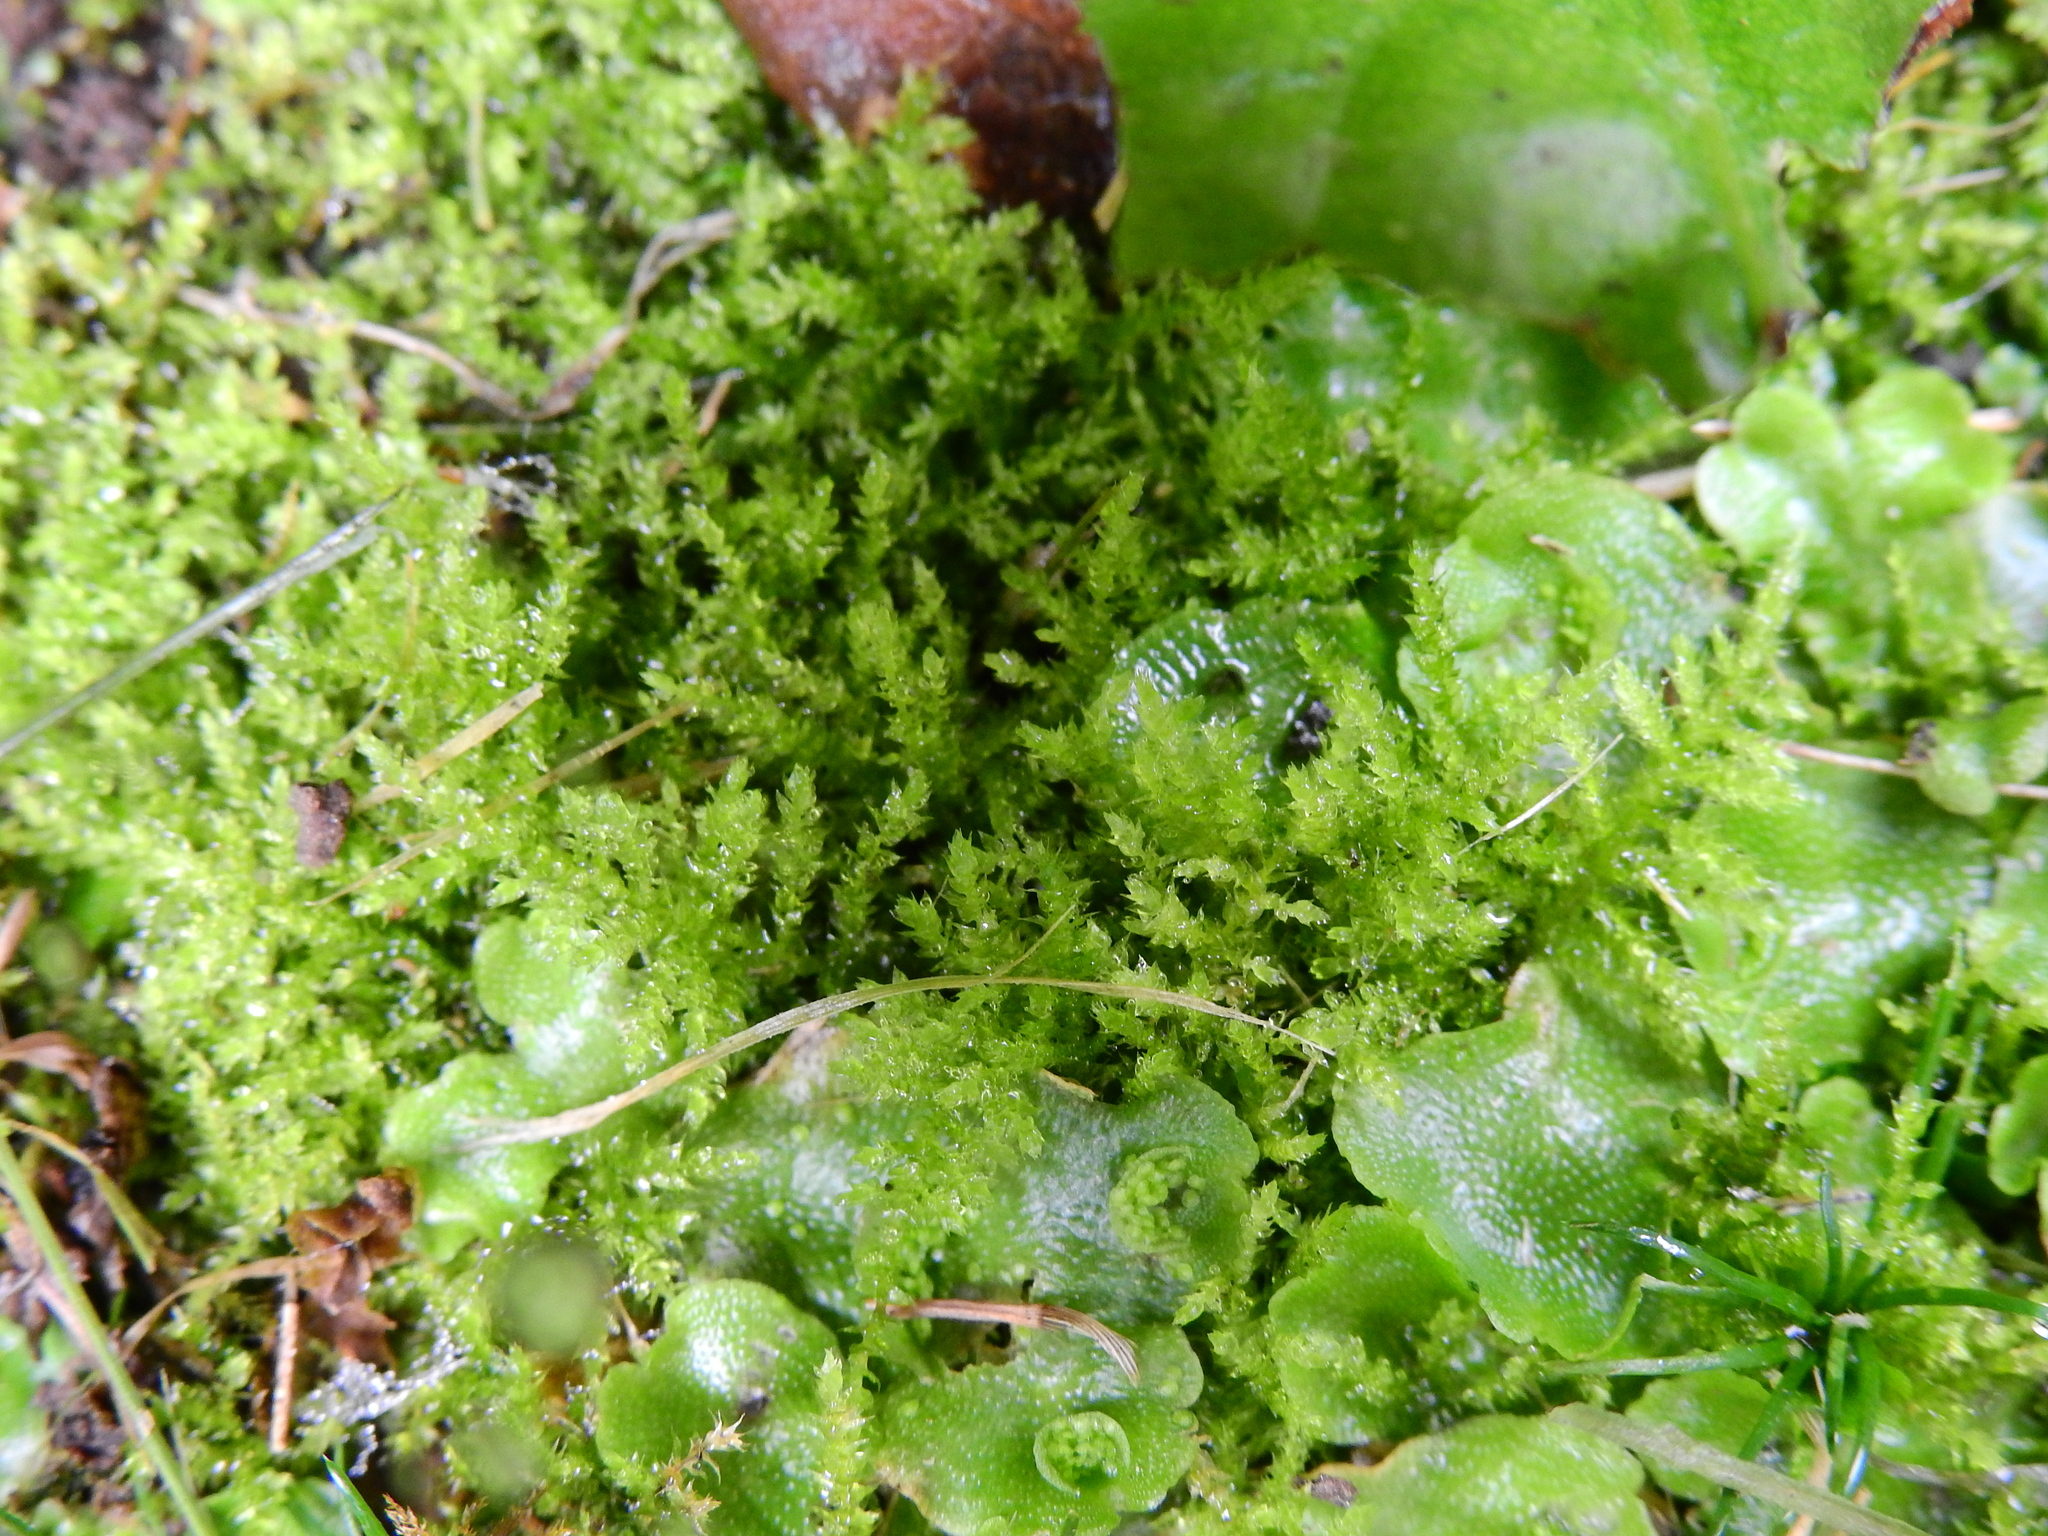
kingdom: Plantae
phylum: Bryophyta
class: Bryopsida
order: Hypnales
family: Brachytheciaceae
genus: Oxyrrhynchium
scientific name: Oxyrrhynchium hians
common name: Spreading beaked moss
